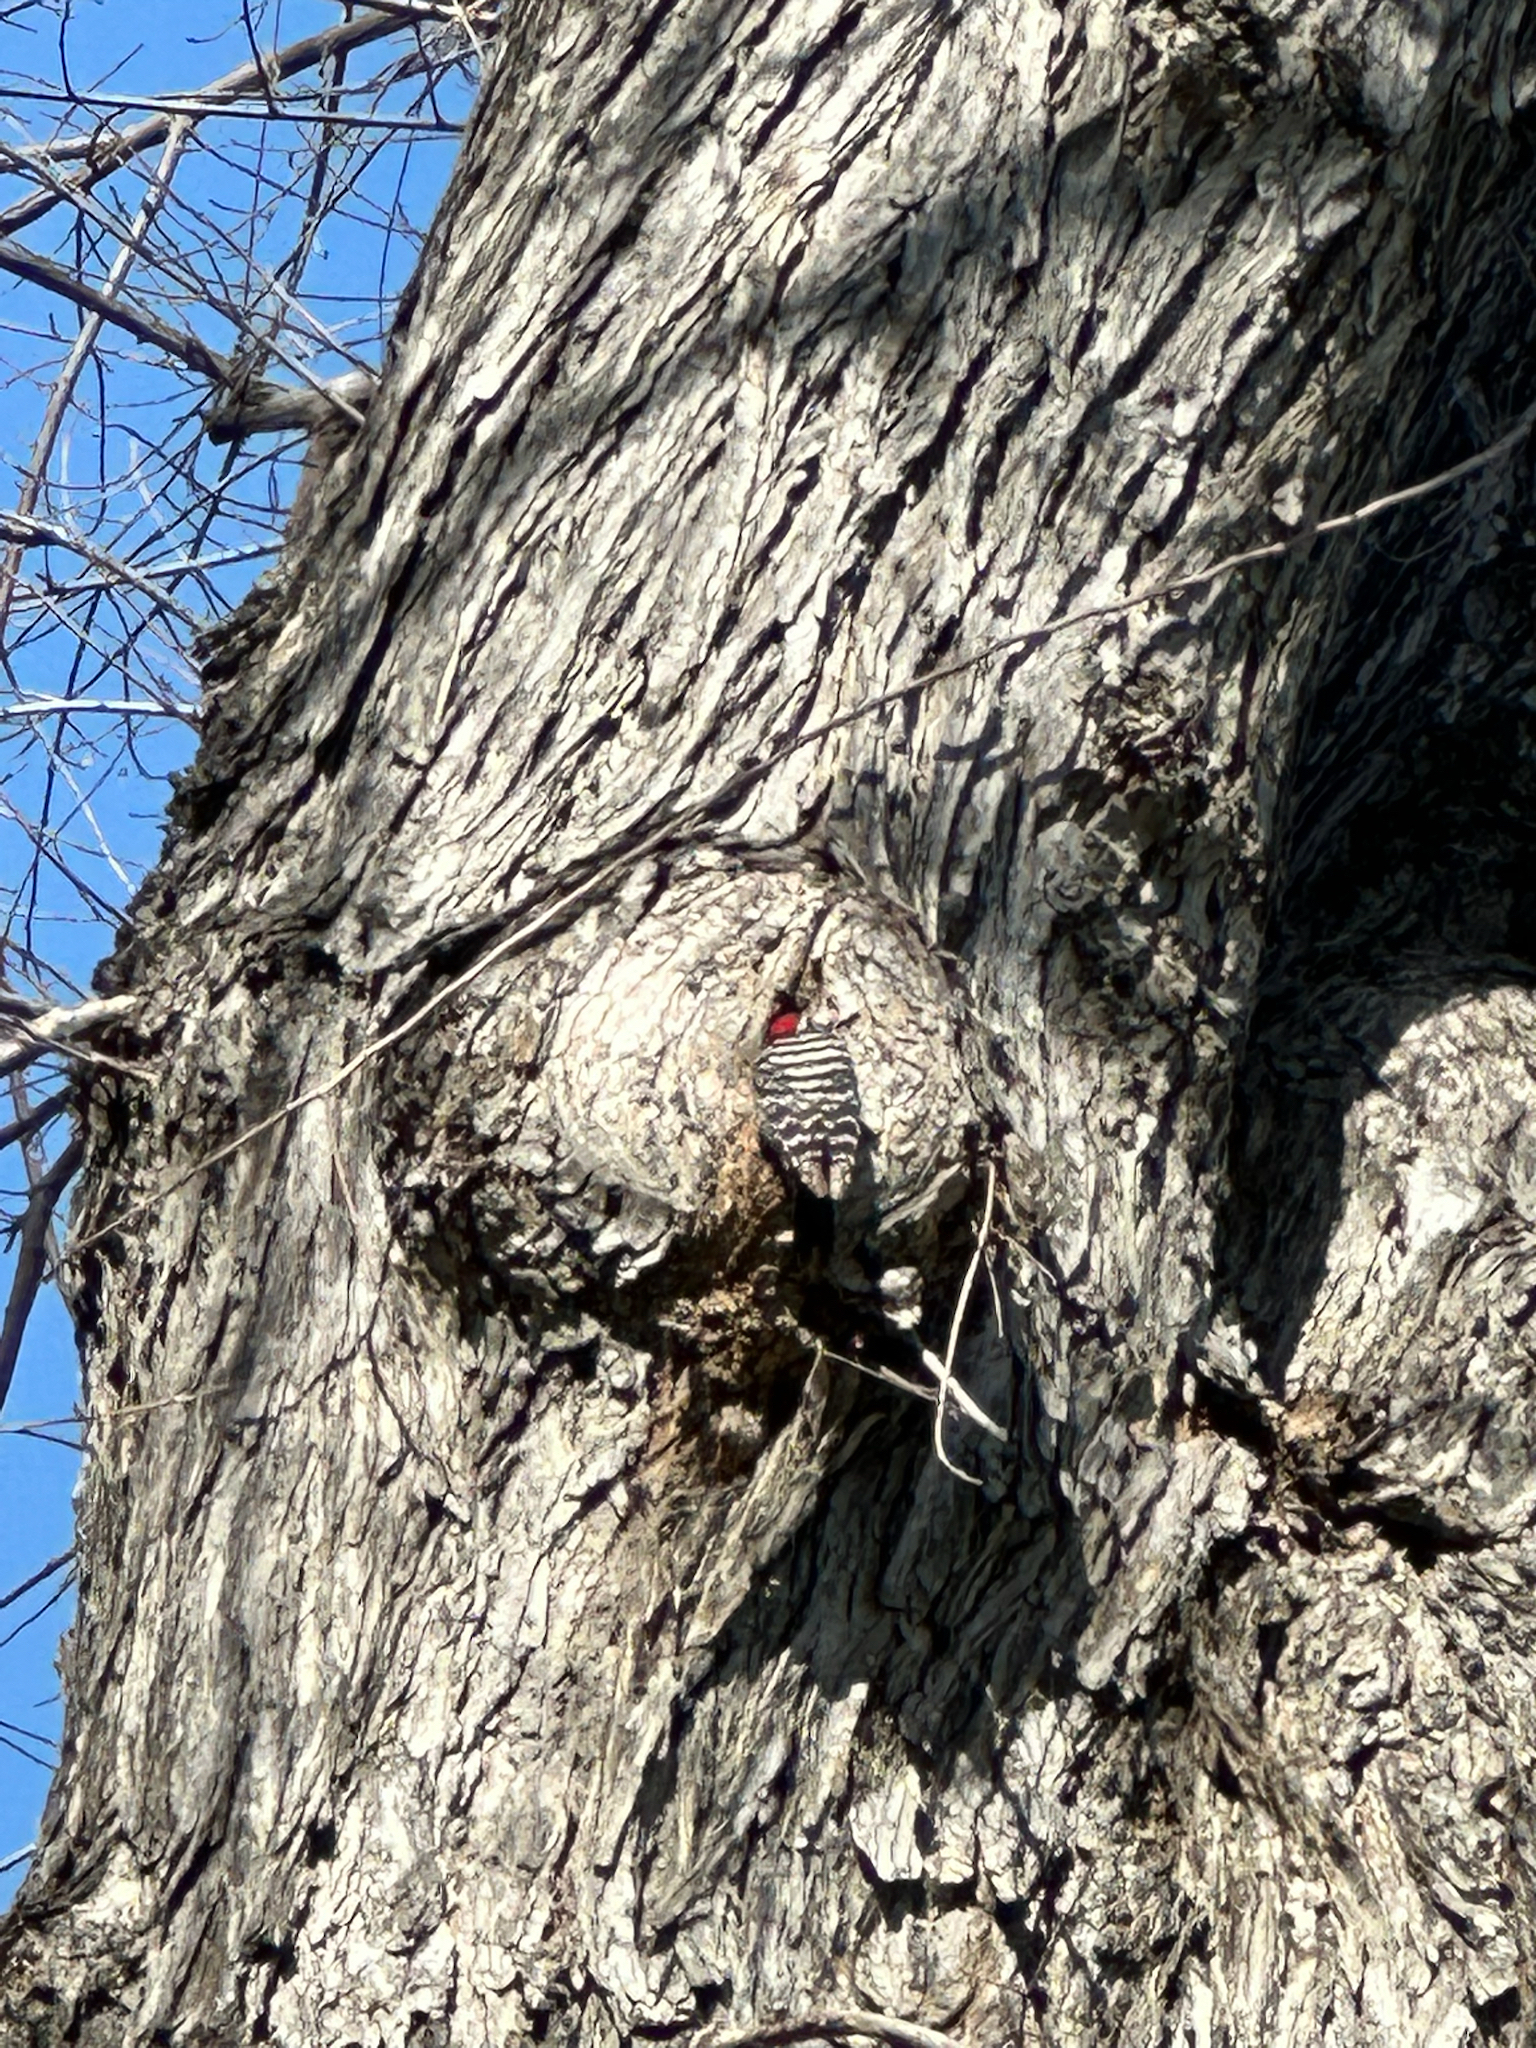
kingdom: Animalia
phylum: Chordata
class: Aves
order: Piciformes
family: Picidae
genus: Dryobates
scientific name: Dryobates nuttallii
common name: Nuttall's woodpecker
